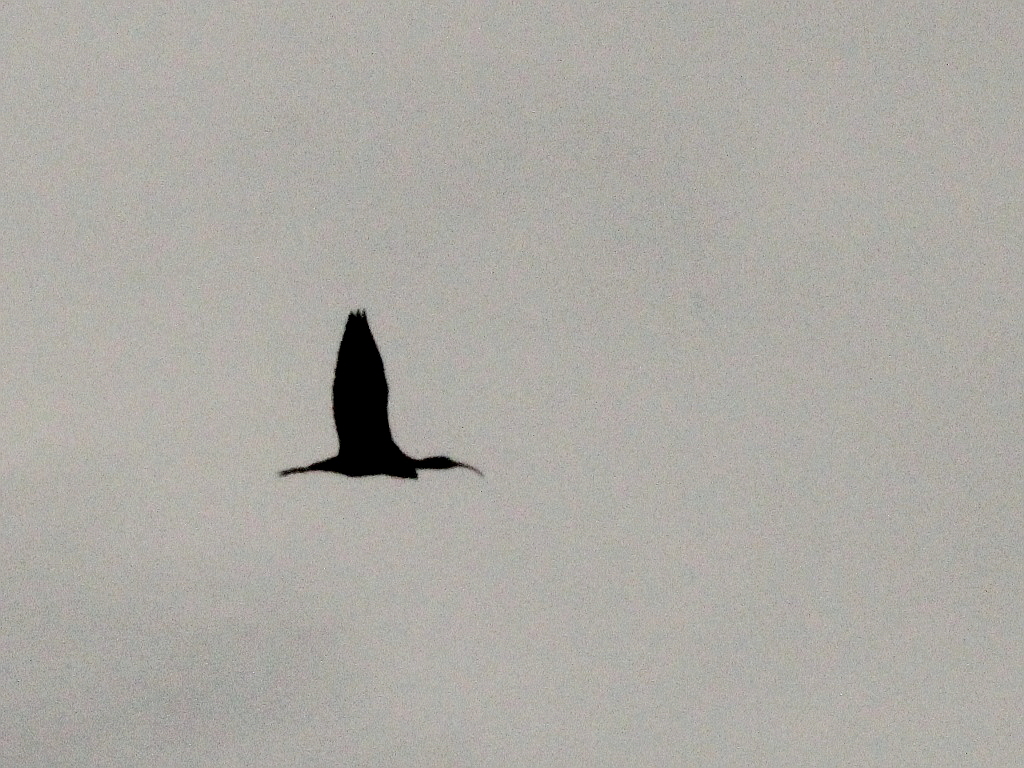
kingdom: Animalia
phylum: Chordata
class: Aves
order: Pelecaniformes
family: Threskiornithidae
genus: Plegadis
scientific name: Plegadis falcinellus
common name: Glossy ibis
